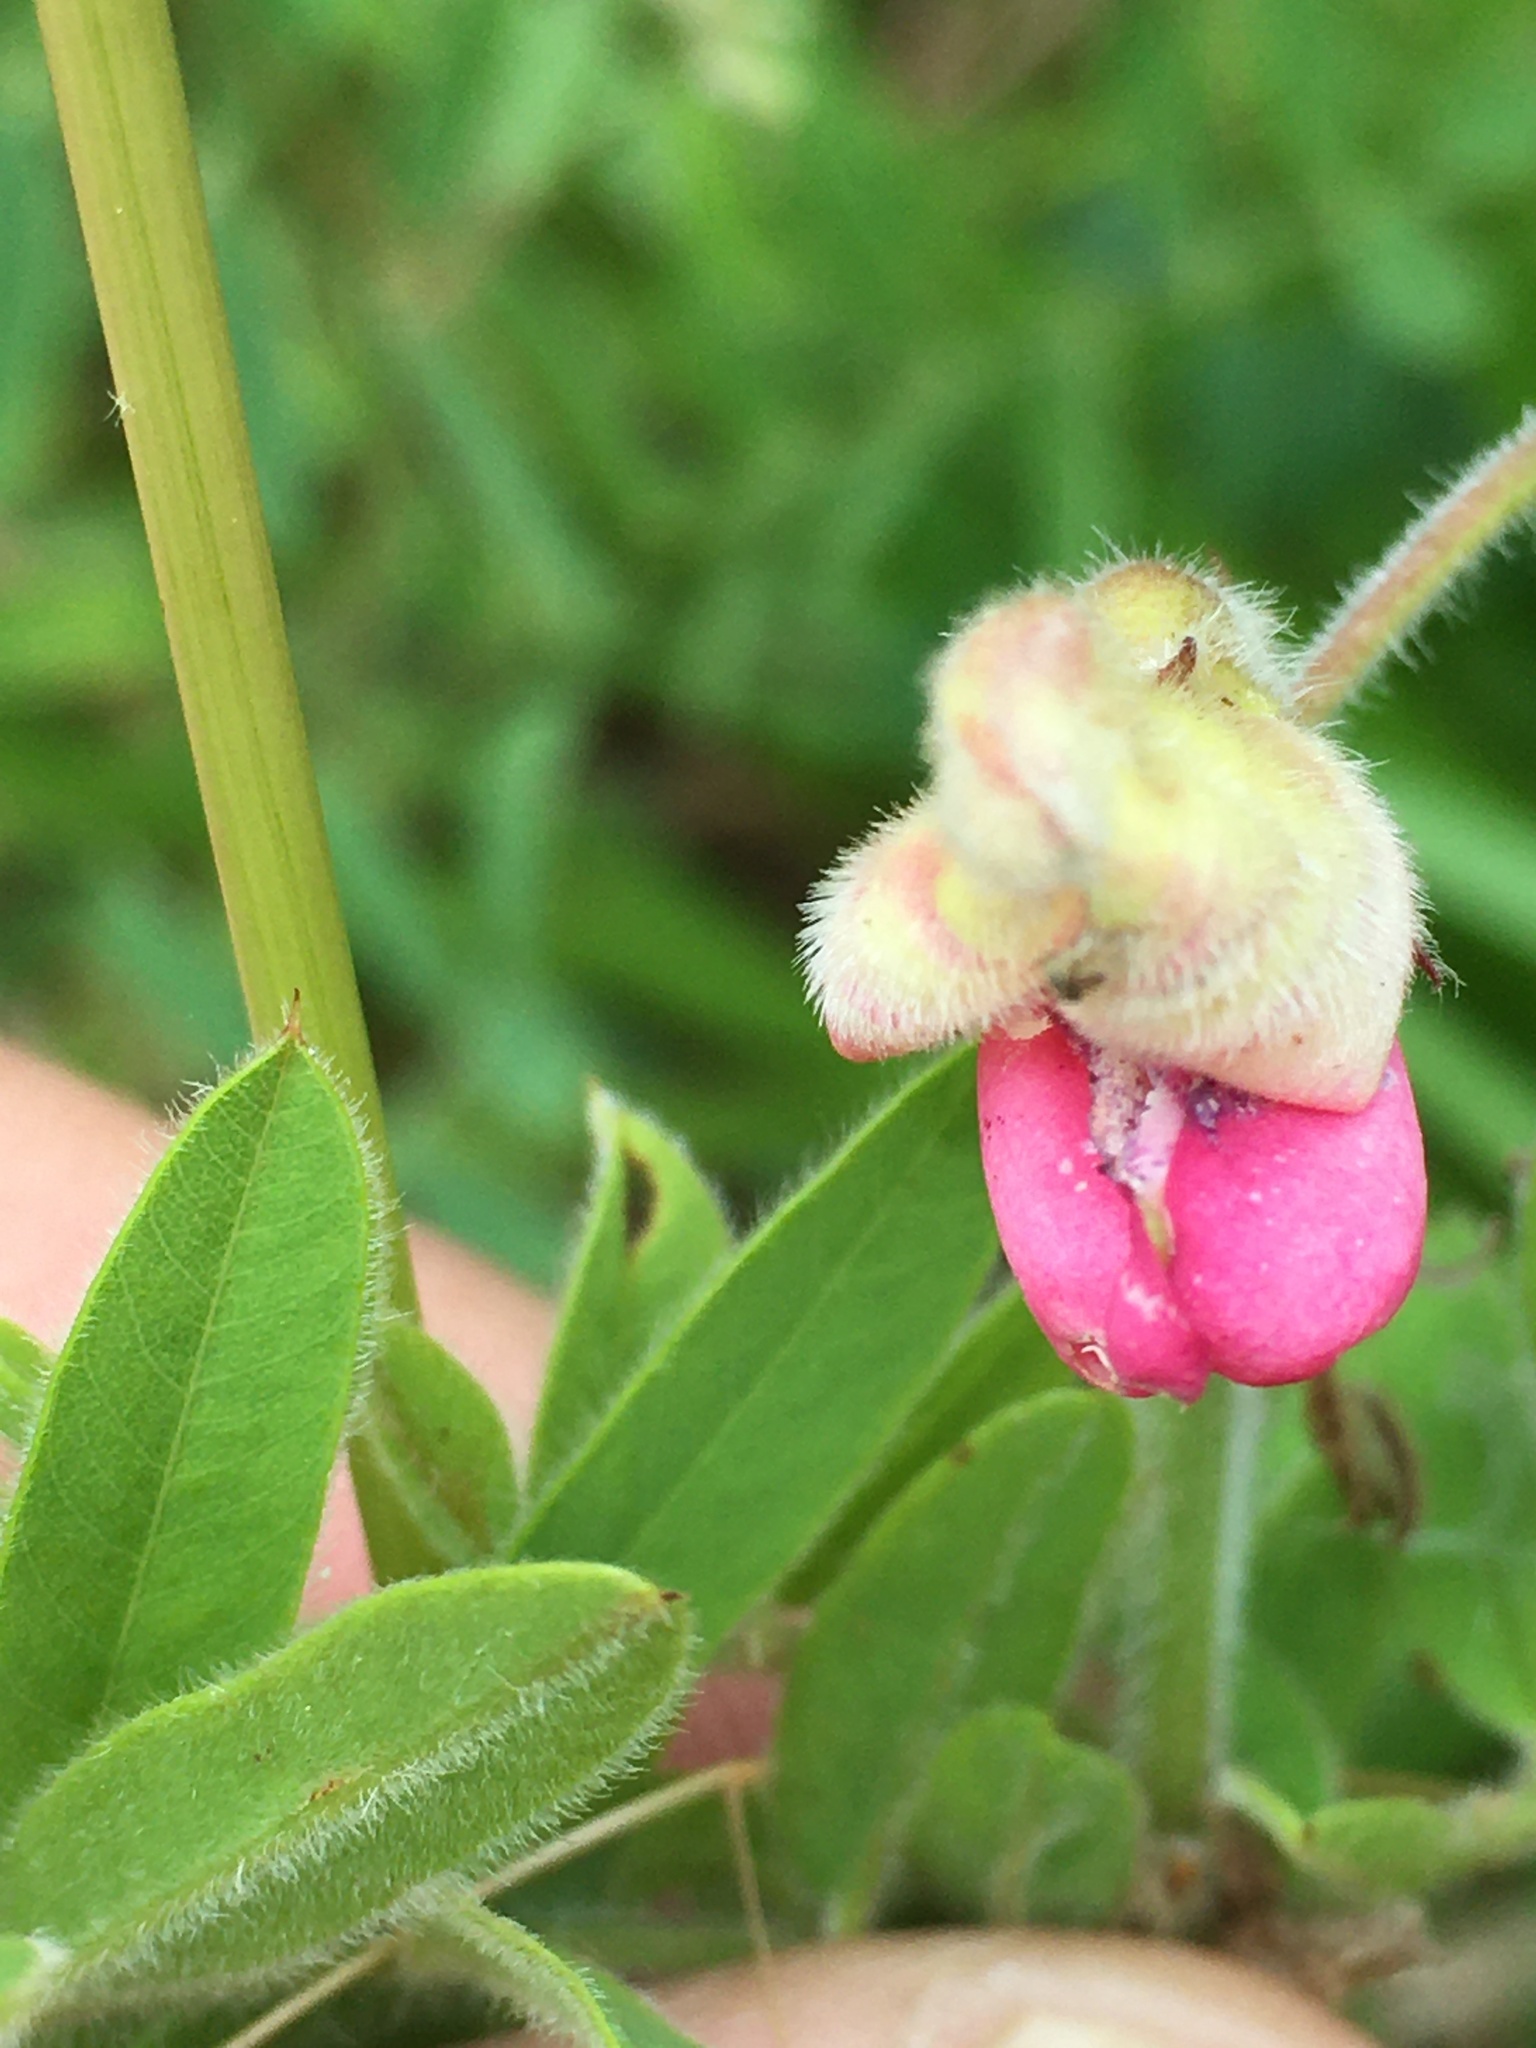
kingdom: Plantae
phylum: Tracheophyta
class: Magnoliopsida
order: Fabales
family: Fabaceae
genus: Tephrosia
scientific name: Tephrosia virginiana
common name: Rabbit-pea
